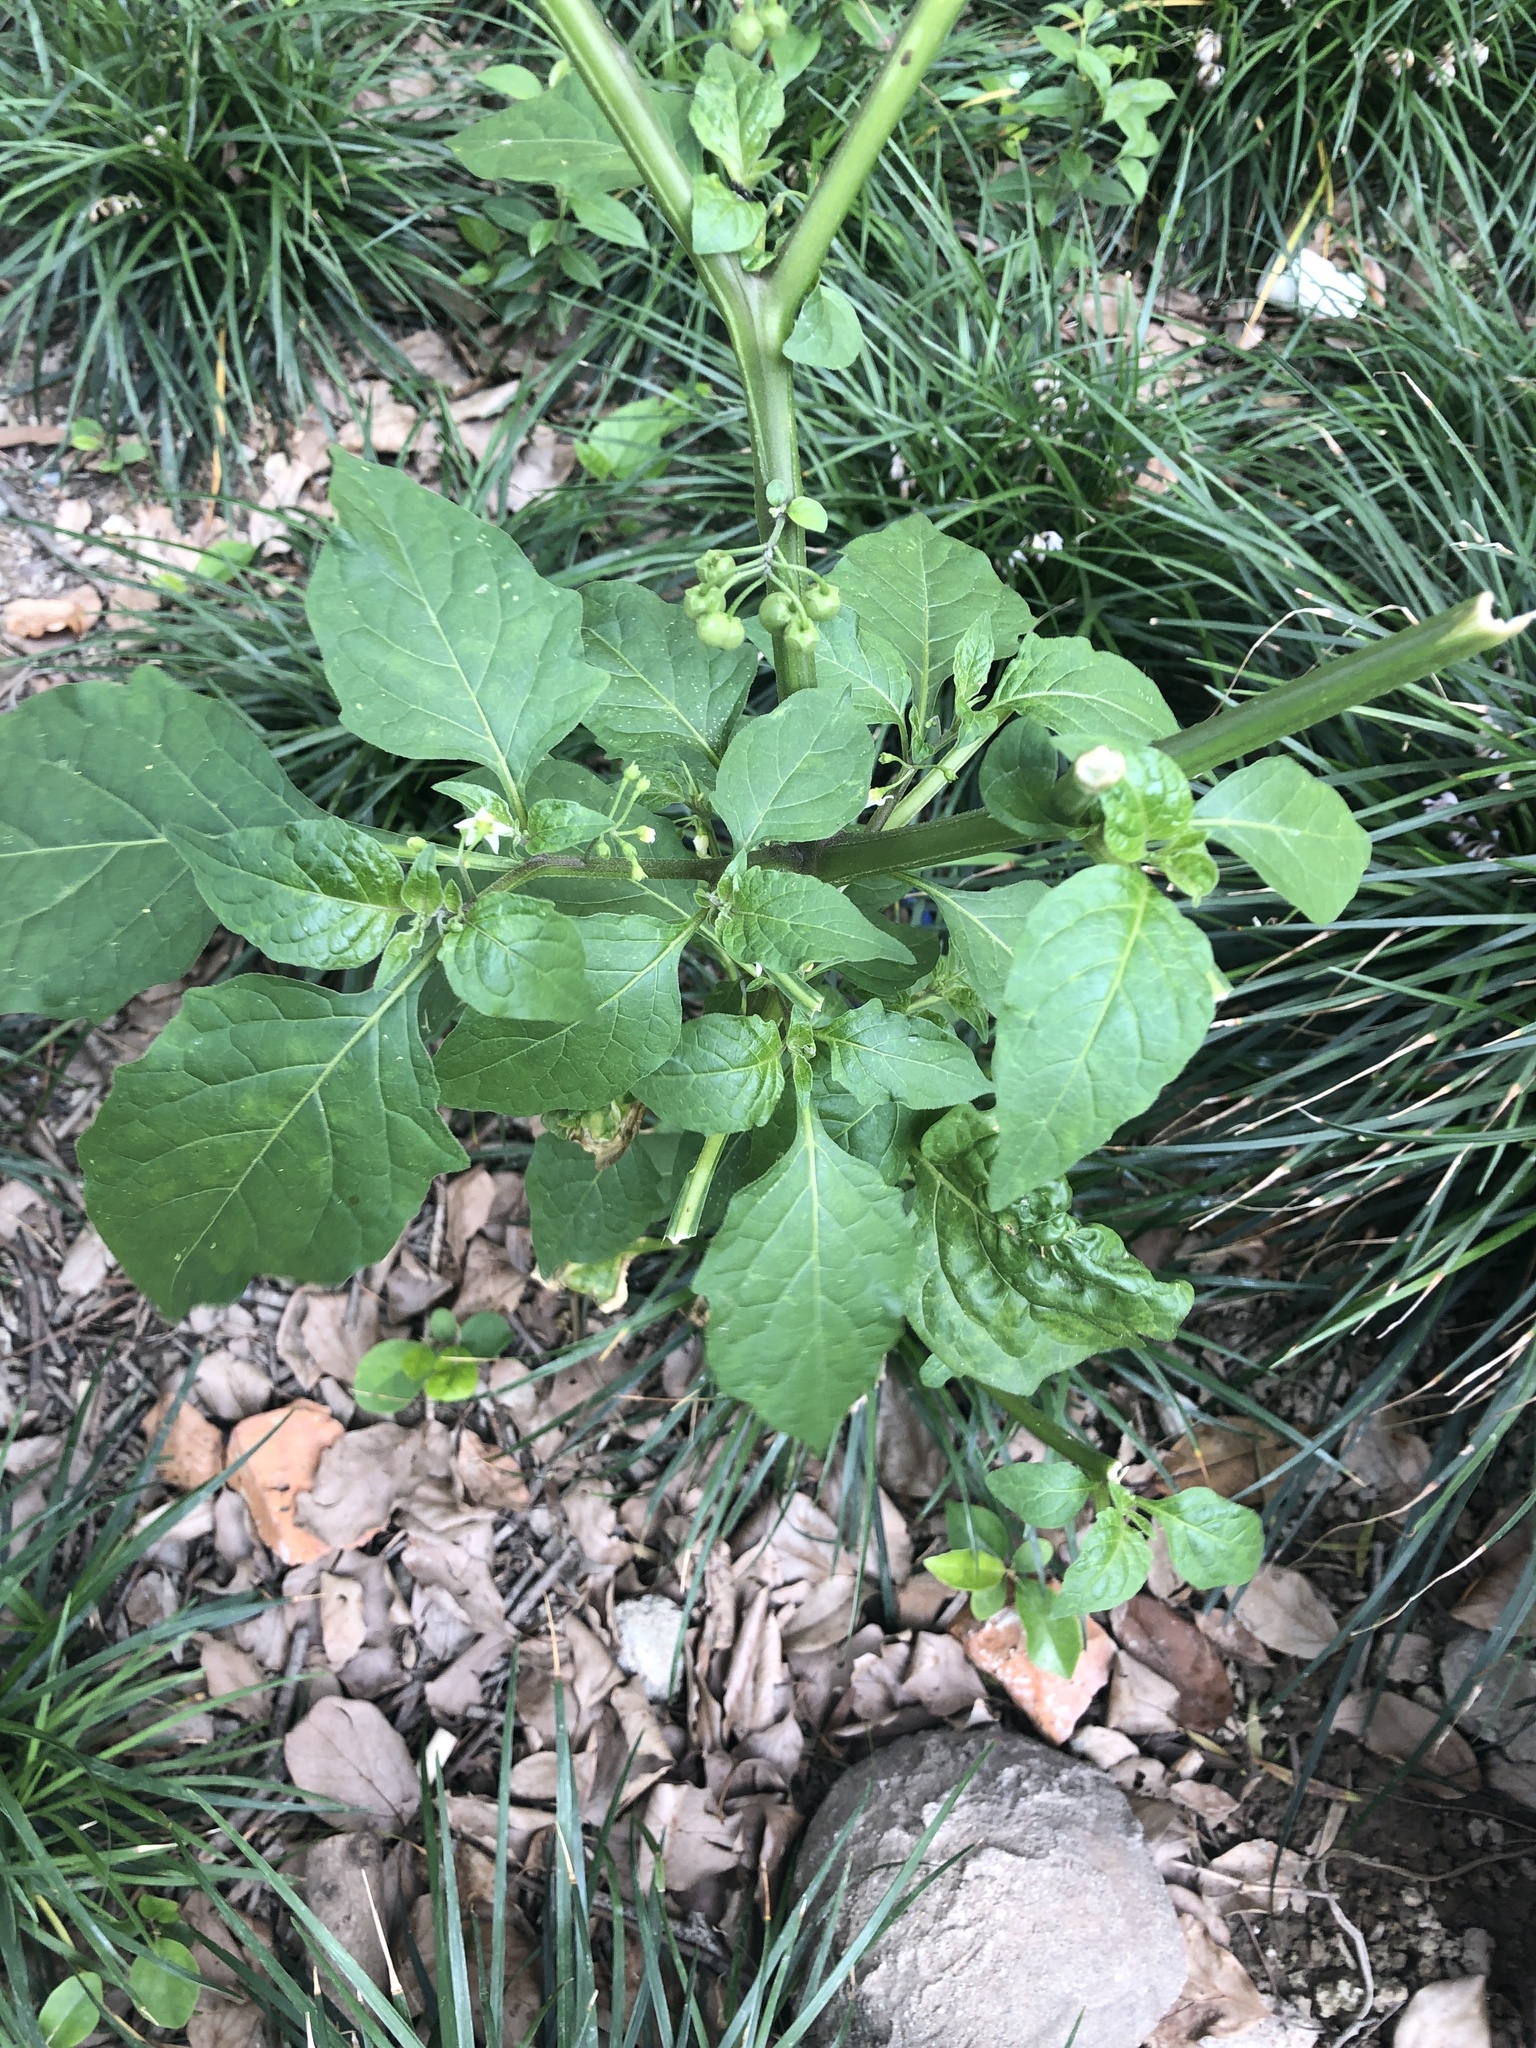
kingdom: Plantae
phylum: Tracheophyta
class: Magnoliopsida
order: Solanales
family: Solanaceae
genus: Solanum
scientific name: Solanum nigrum
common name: Black nightshade
